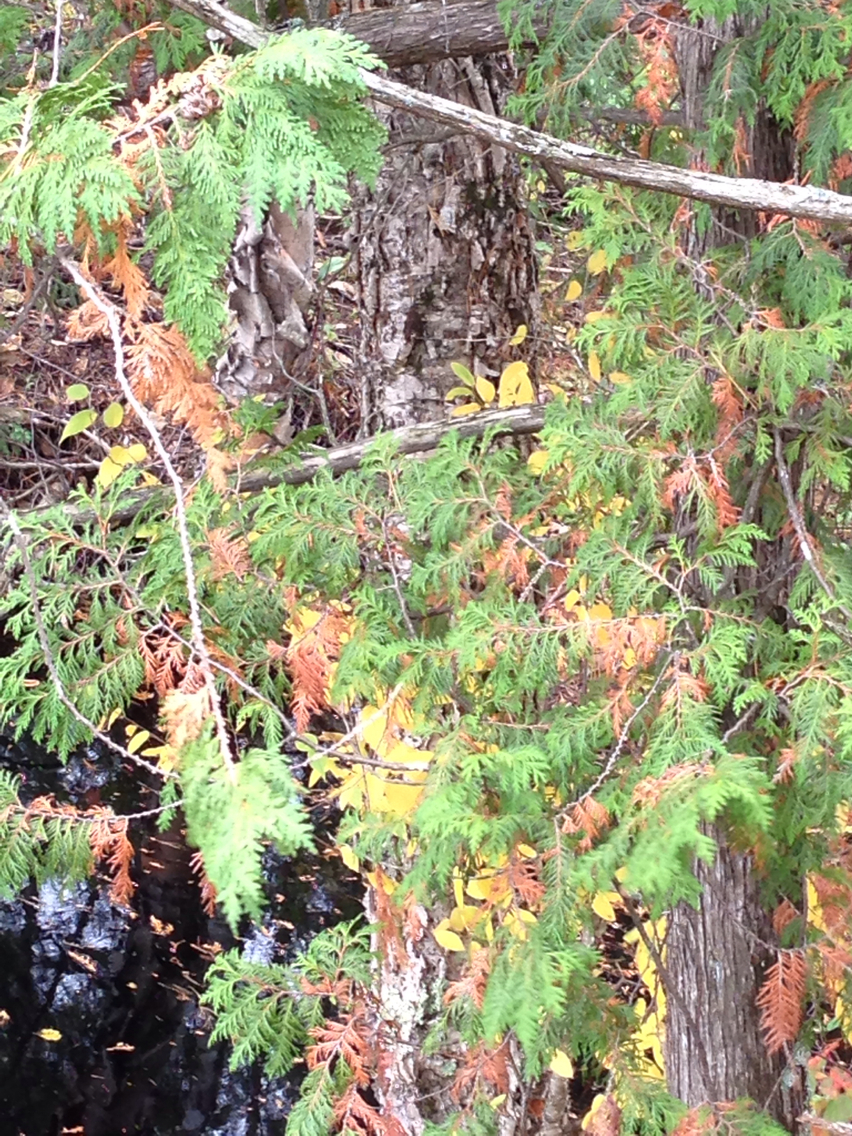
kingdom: Plantae
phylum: Tracheophyta
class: Magnoliopsida
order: Fagales
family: Betulaceae
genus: Betula
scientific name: Betula alleghaniensis
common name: Yellow birch
